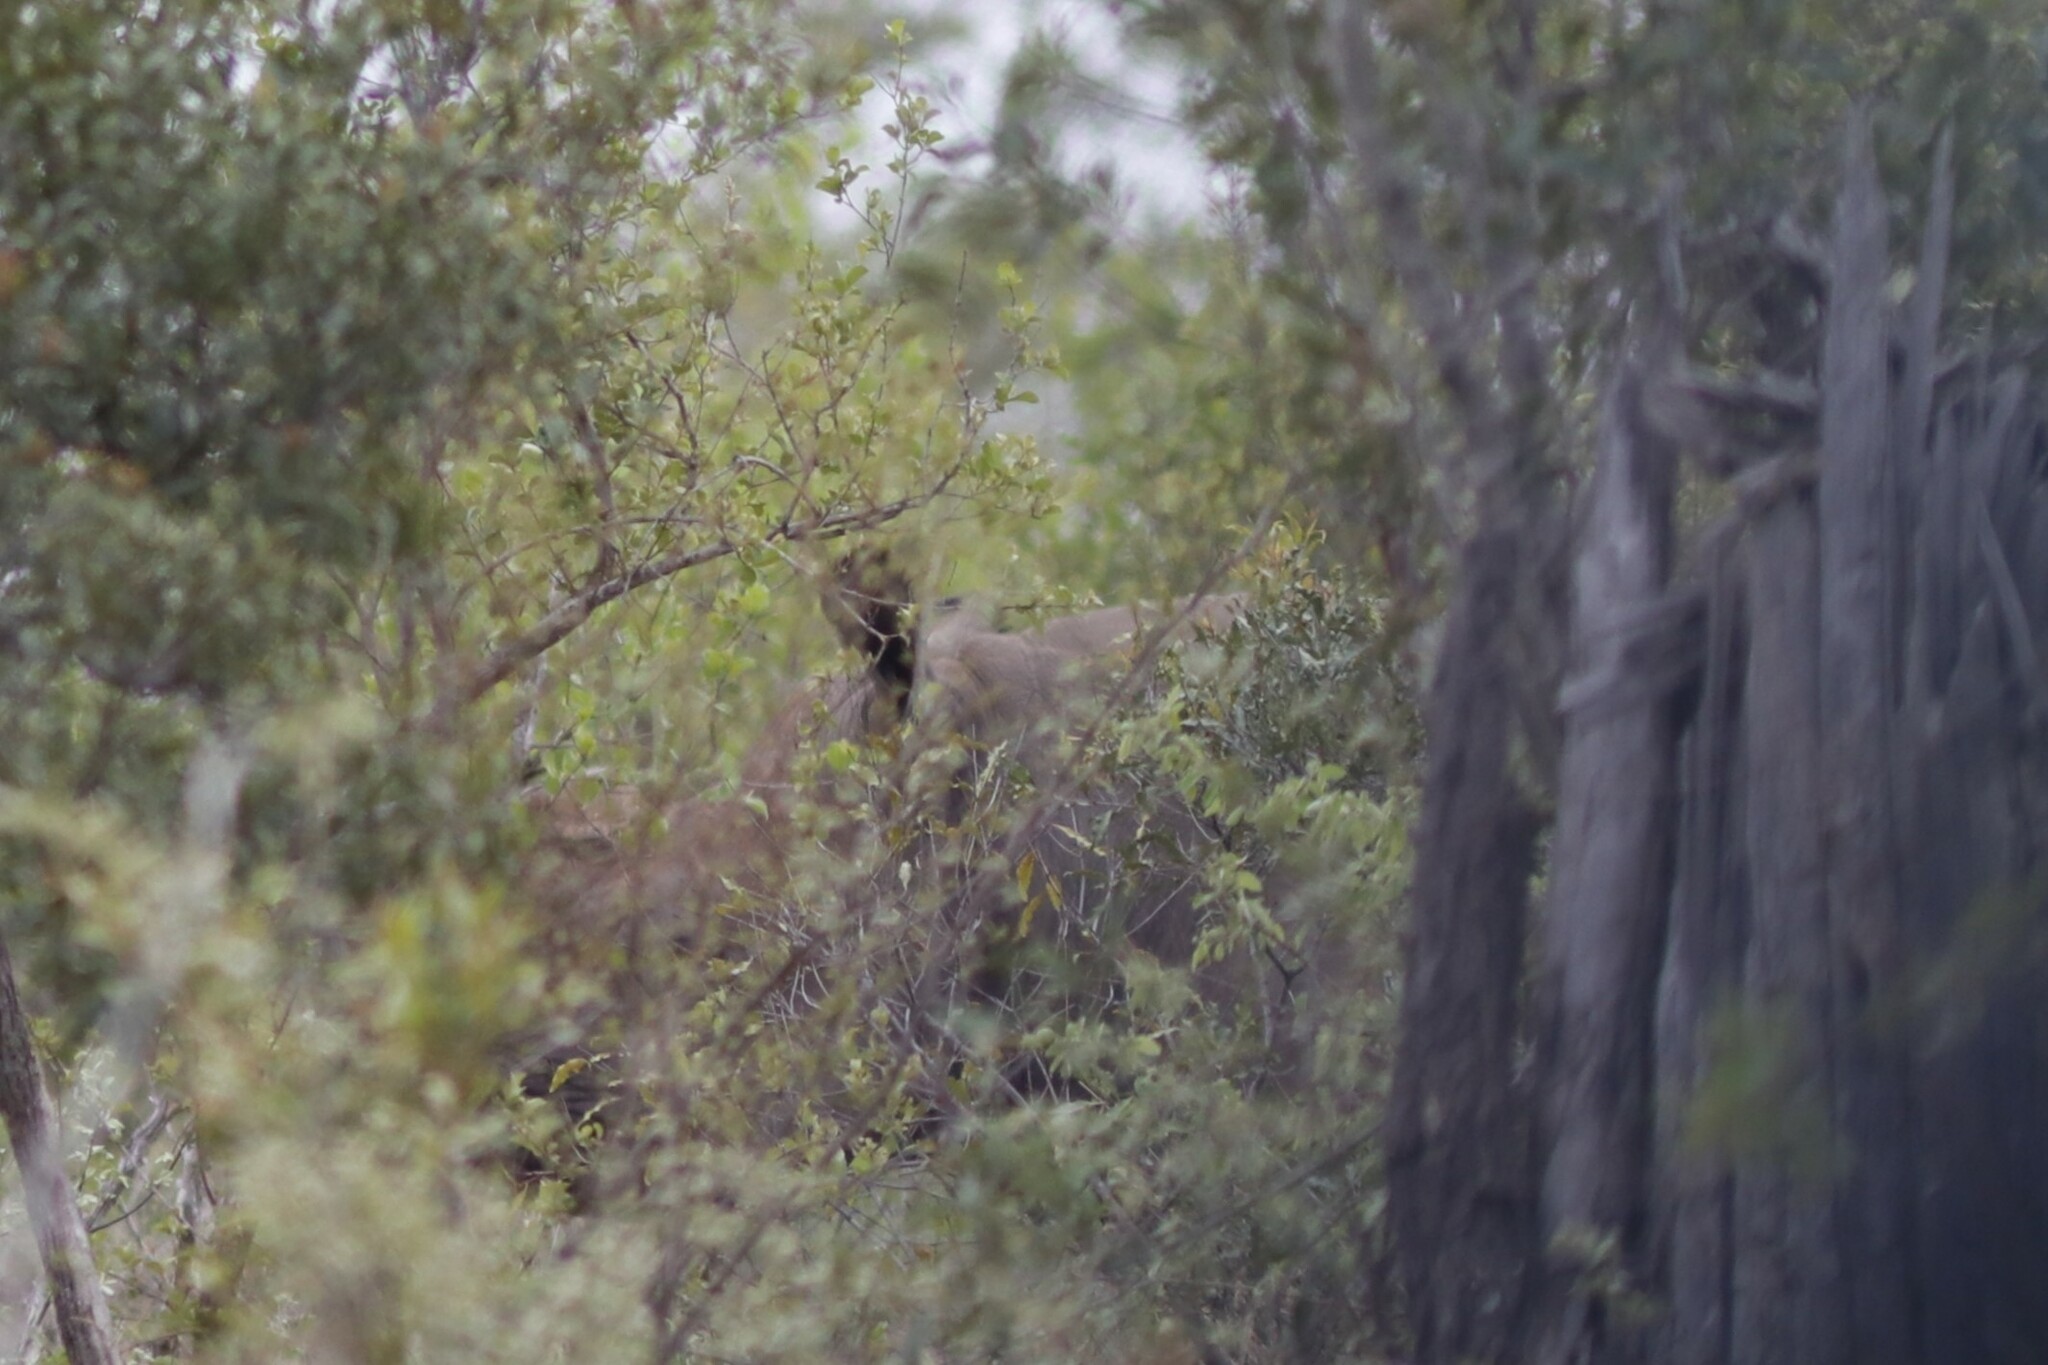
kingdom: Animalia
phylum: Chordata
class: Mammalia
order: Perissodactyla
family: Rhinocerotidae
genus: Diceros
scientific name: Diceros bicornis
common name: Black rhinoceros
